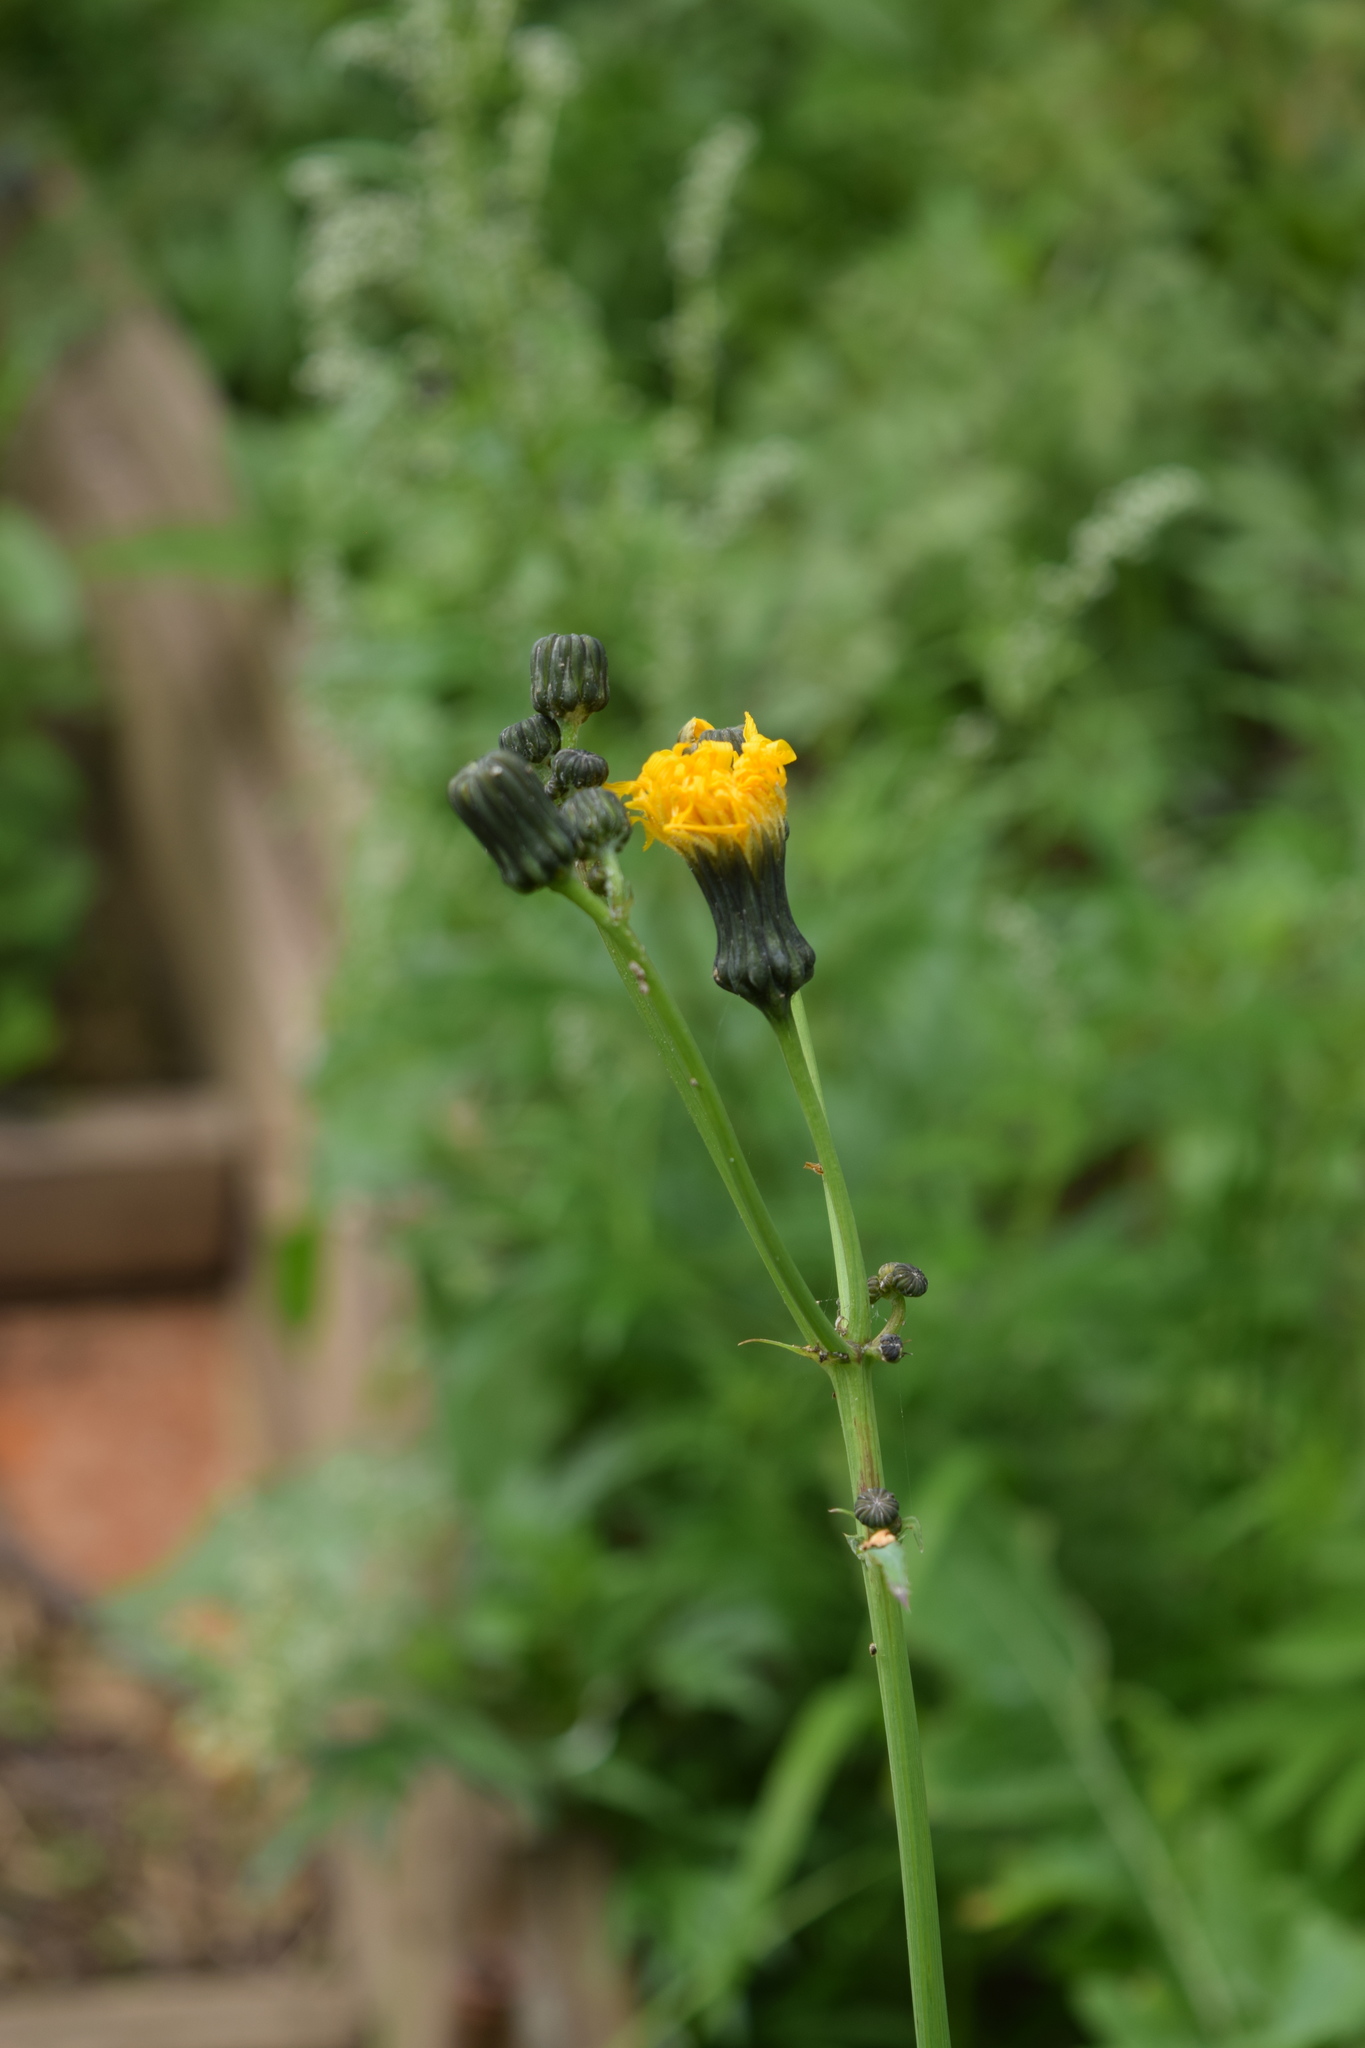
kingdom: Plantae
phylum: Tracheophyta
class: Magnoliopsida
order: Asterales
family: Asteraceae
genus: Sonchus
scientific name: Sonchus arvensis
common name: Perennial sow-thistle
